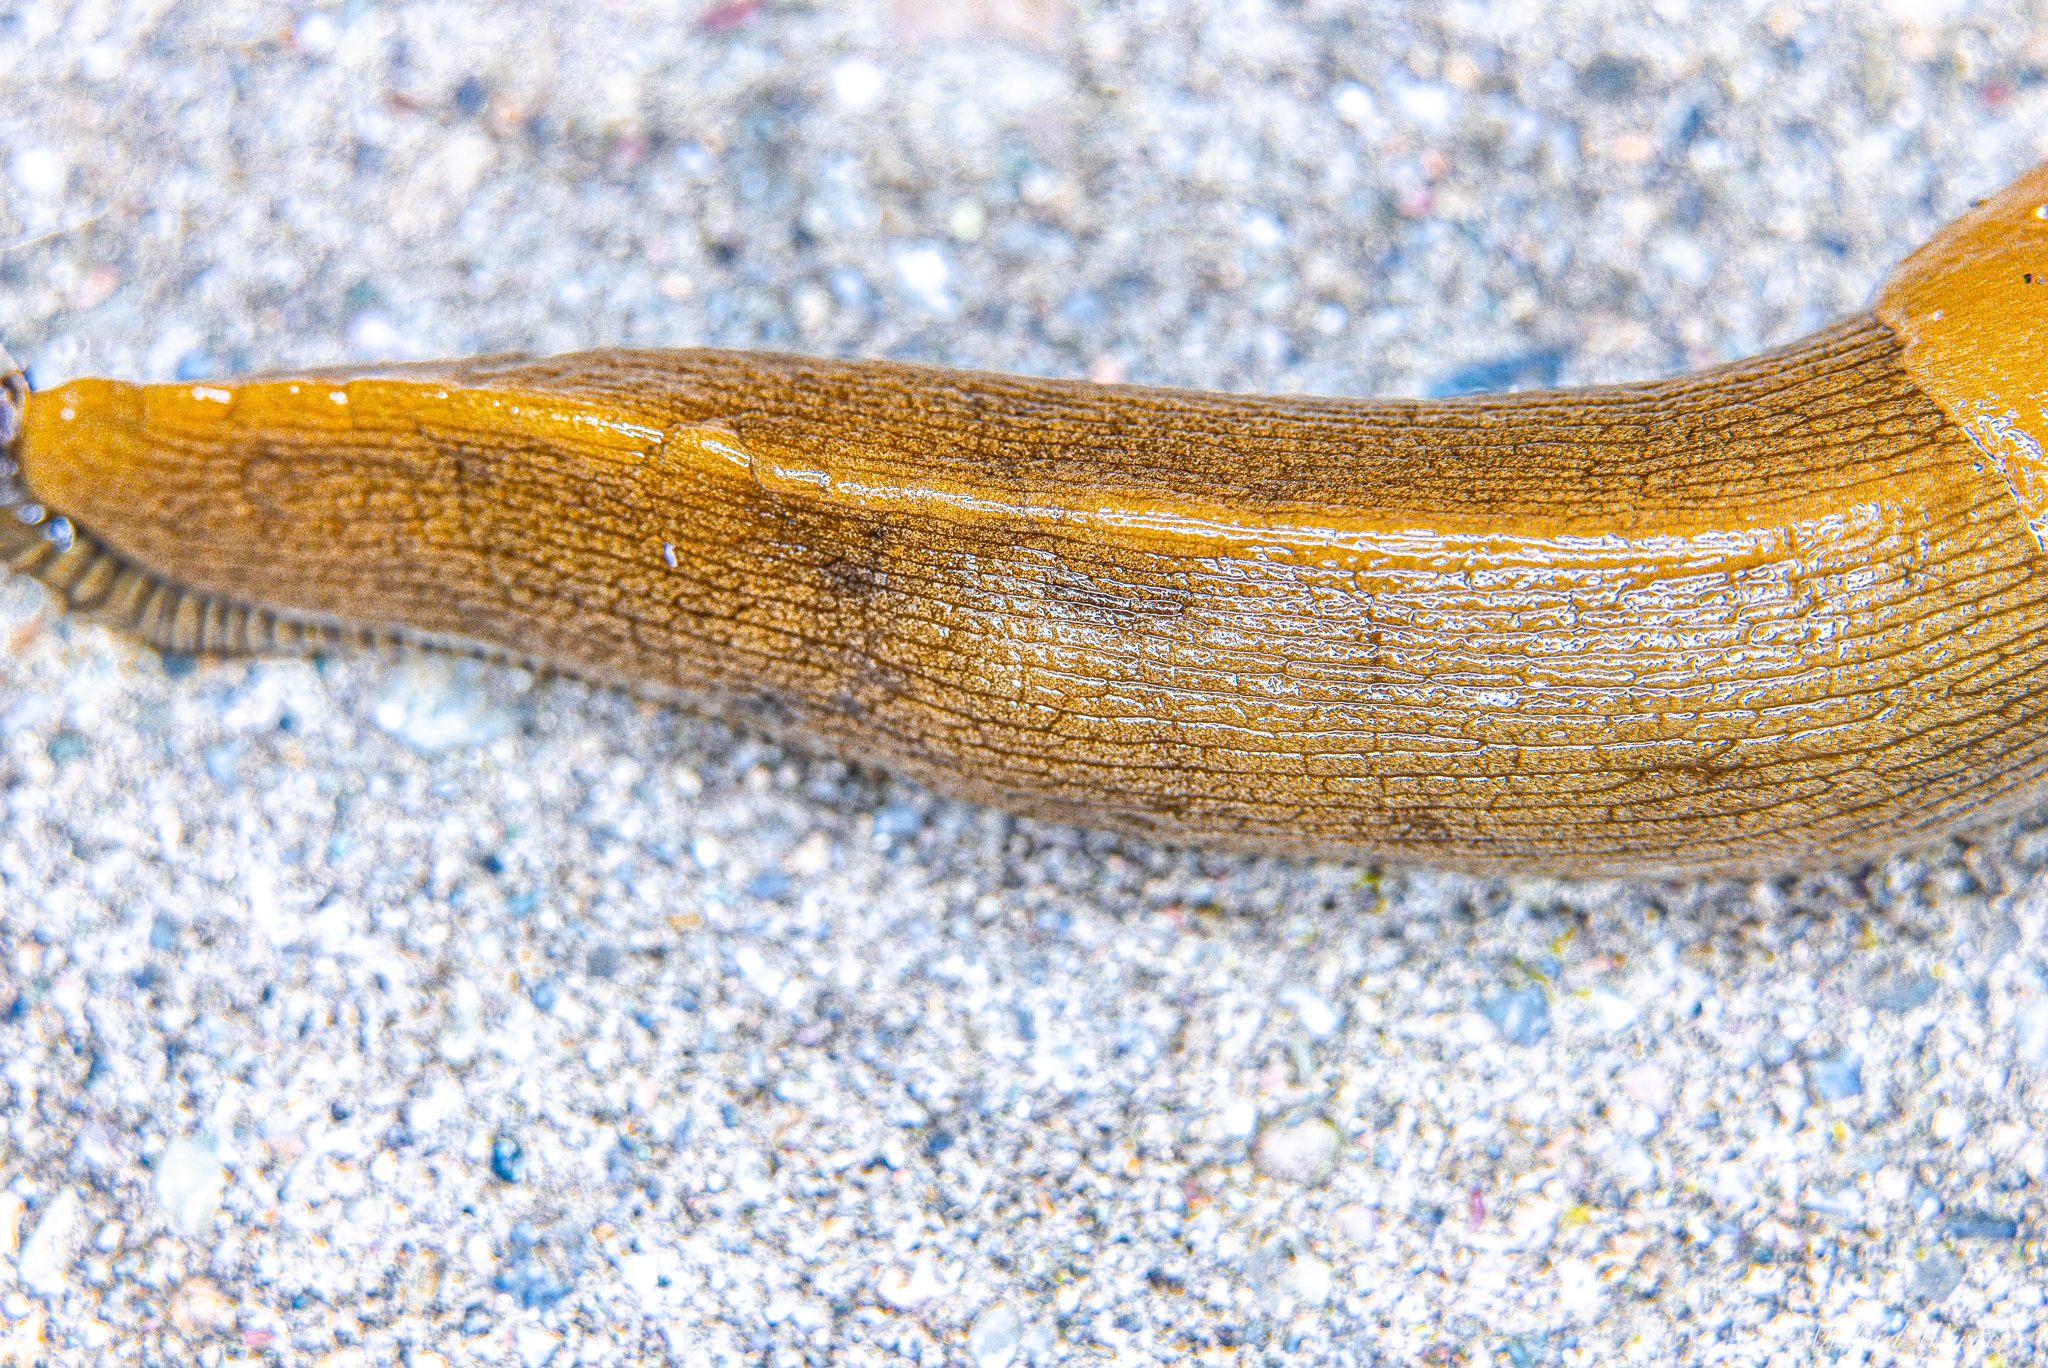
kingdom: Animalia
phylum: Mollusca
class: Gastropoda
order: Stylommatophora
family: Ariolimacidae
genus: Ariolimax
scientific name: Ariolimax buttoni
